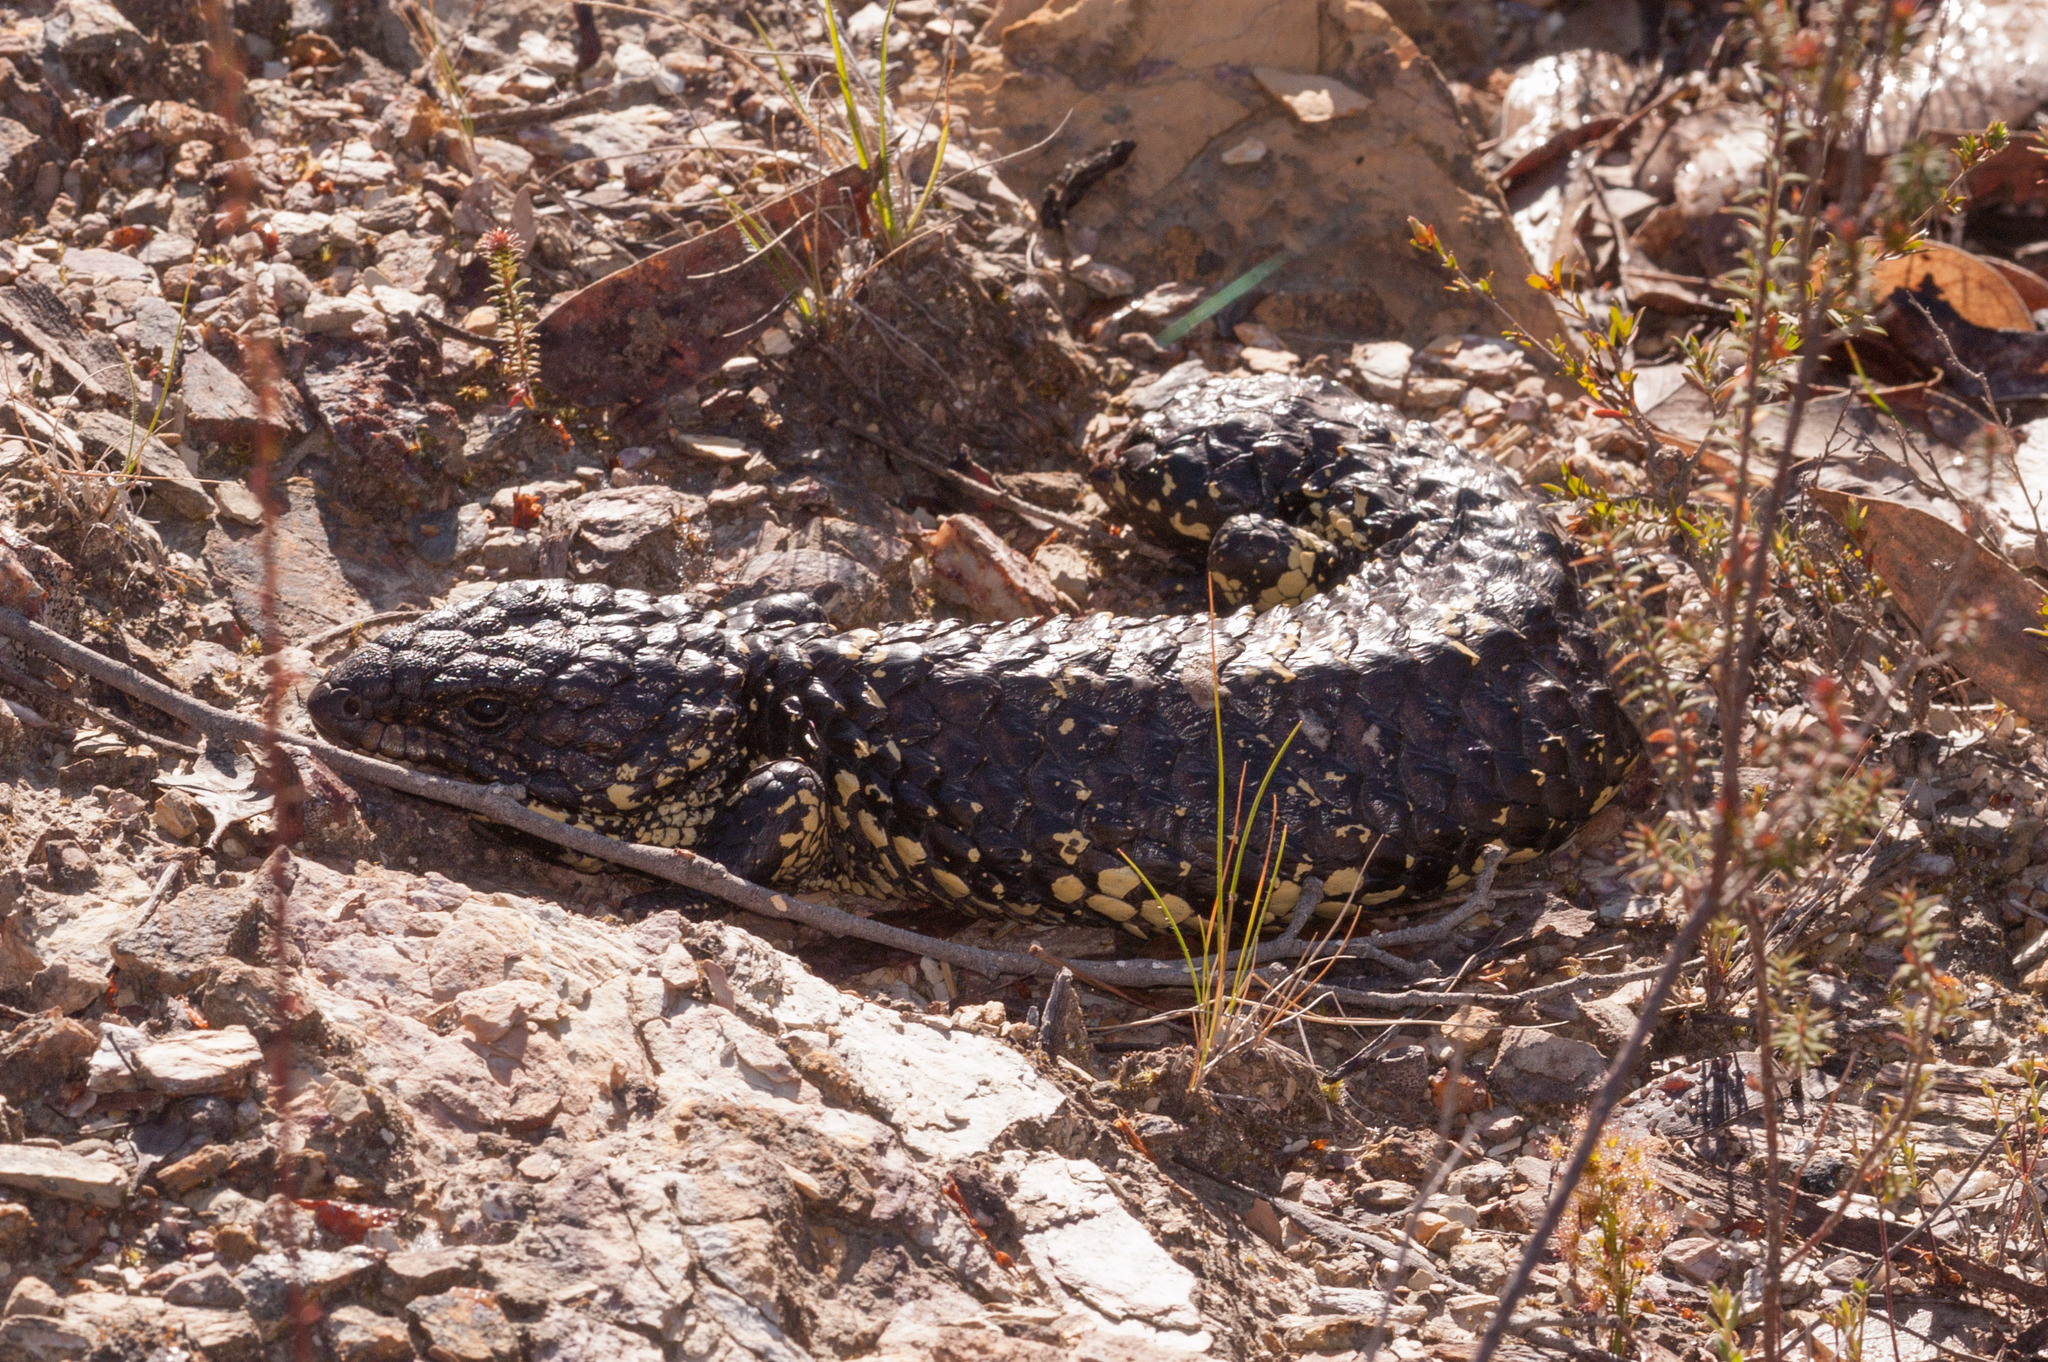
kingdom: Animalia
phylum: Chordata
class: Squamata
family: Scincidae
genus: Tiliqua
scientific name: Tiliqua rugosa
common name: Pinecone lizard
